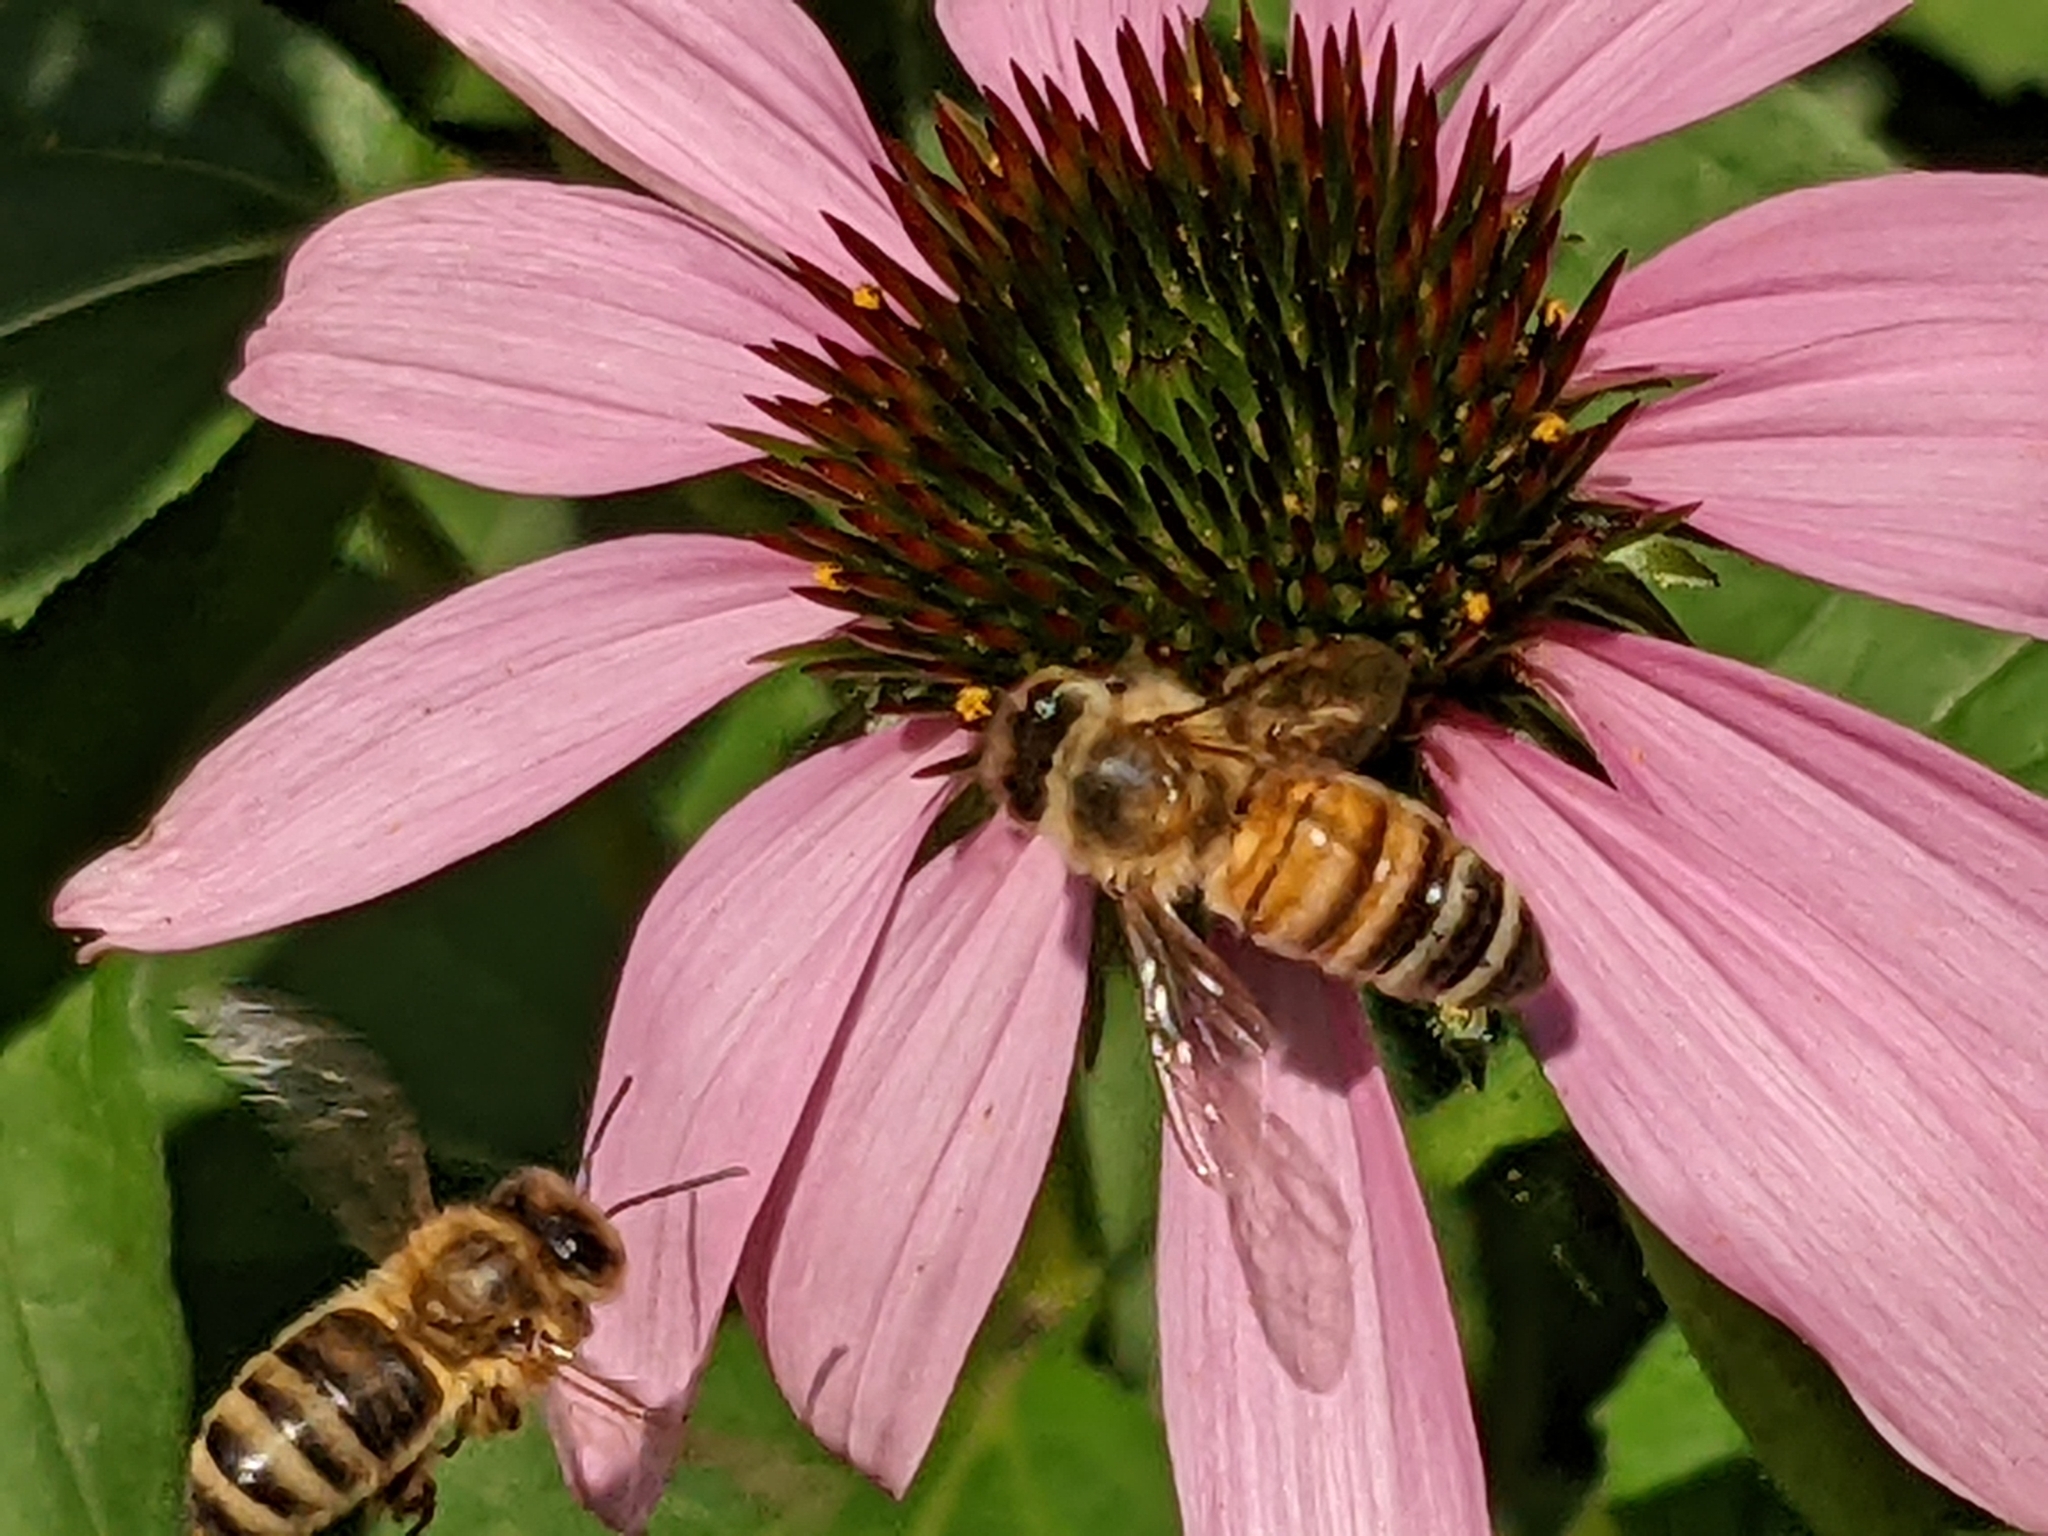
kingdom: Animalia
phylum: Arthropoda
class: Insecta
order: Hymenoptera
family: Apidae
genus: Apis
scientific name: Apis mellifera
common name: Honey bee
